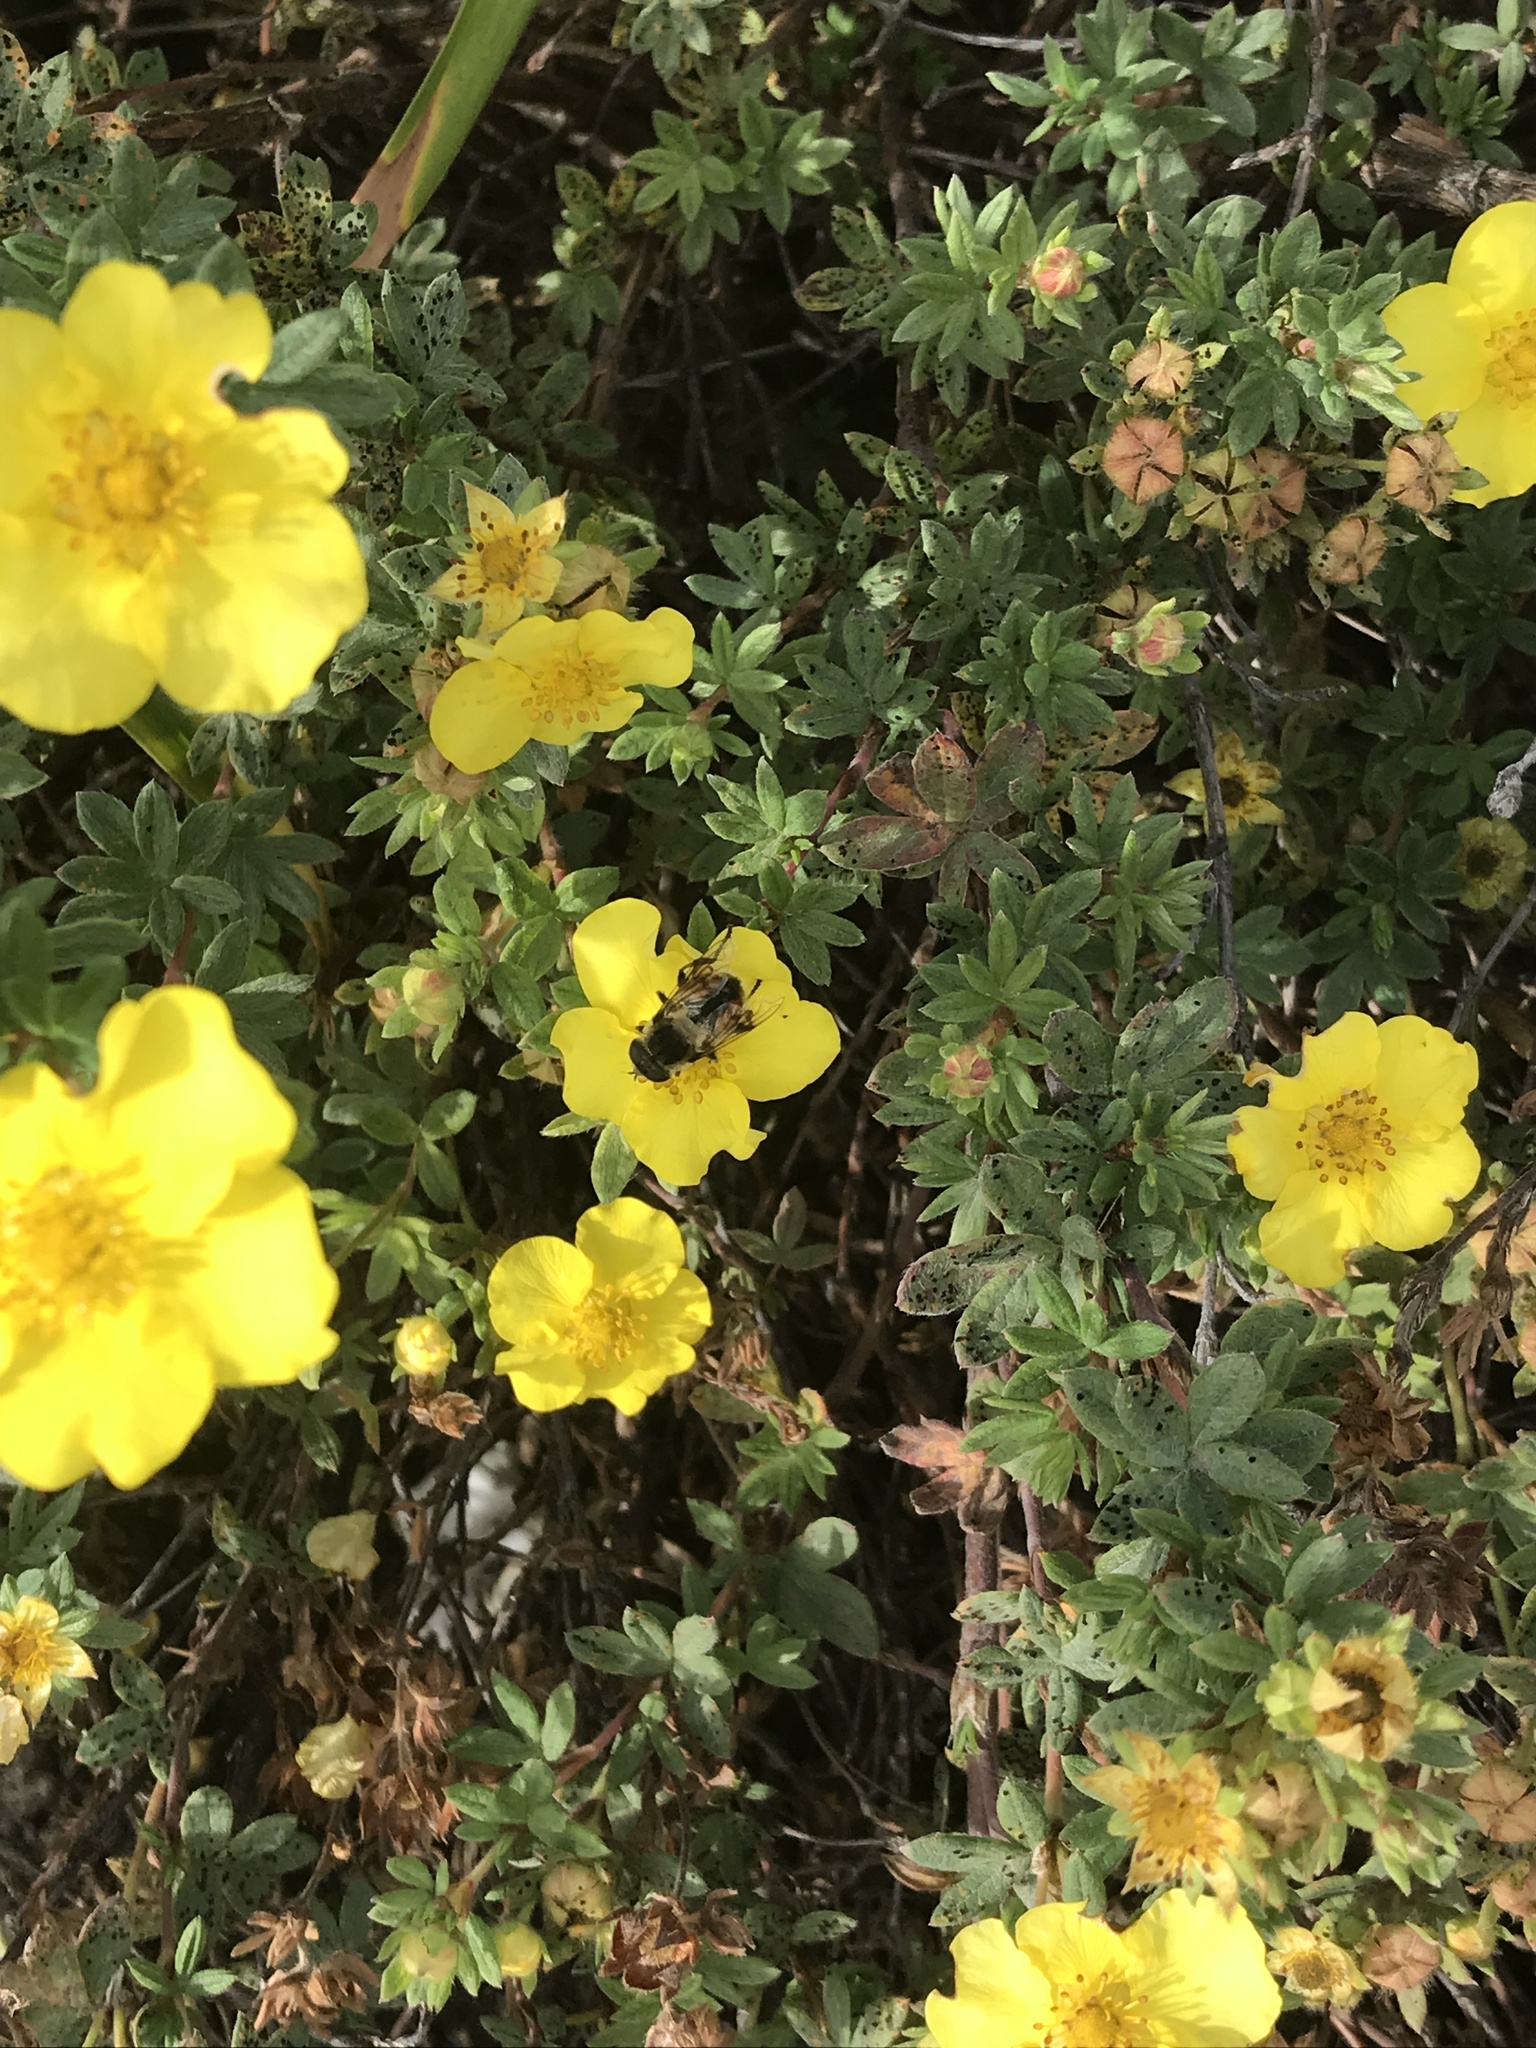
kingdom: Animalia
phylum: Arthropoda
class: Insecta
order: Diptera
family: Syrphidae
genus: Eristalis
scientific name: Eristalis anthophorina
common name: Orange-spotted drone fly
